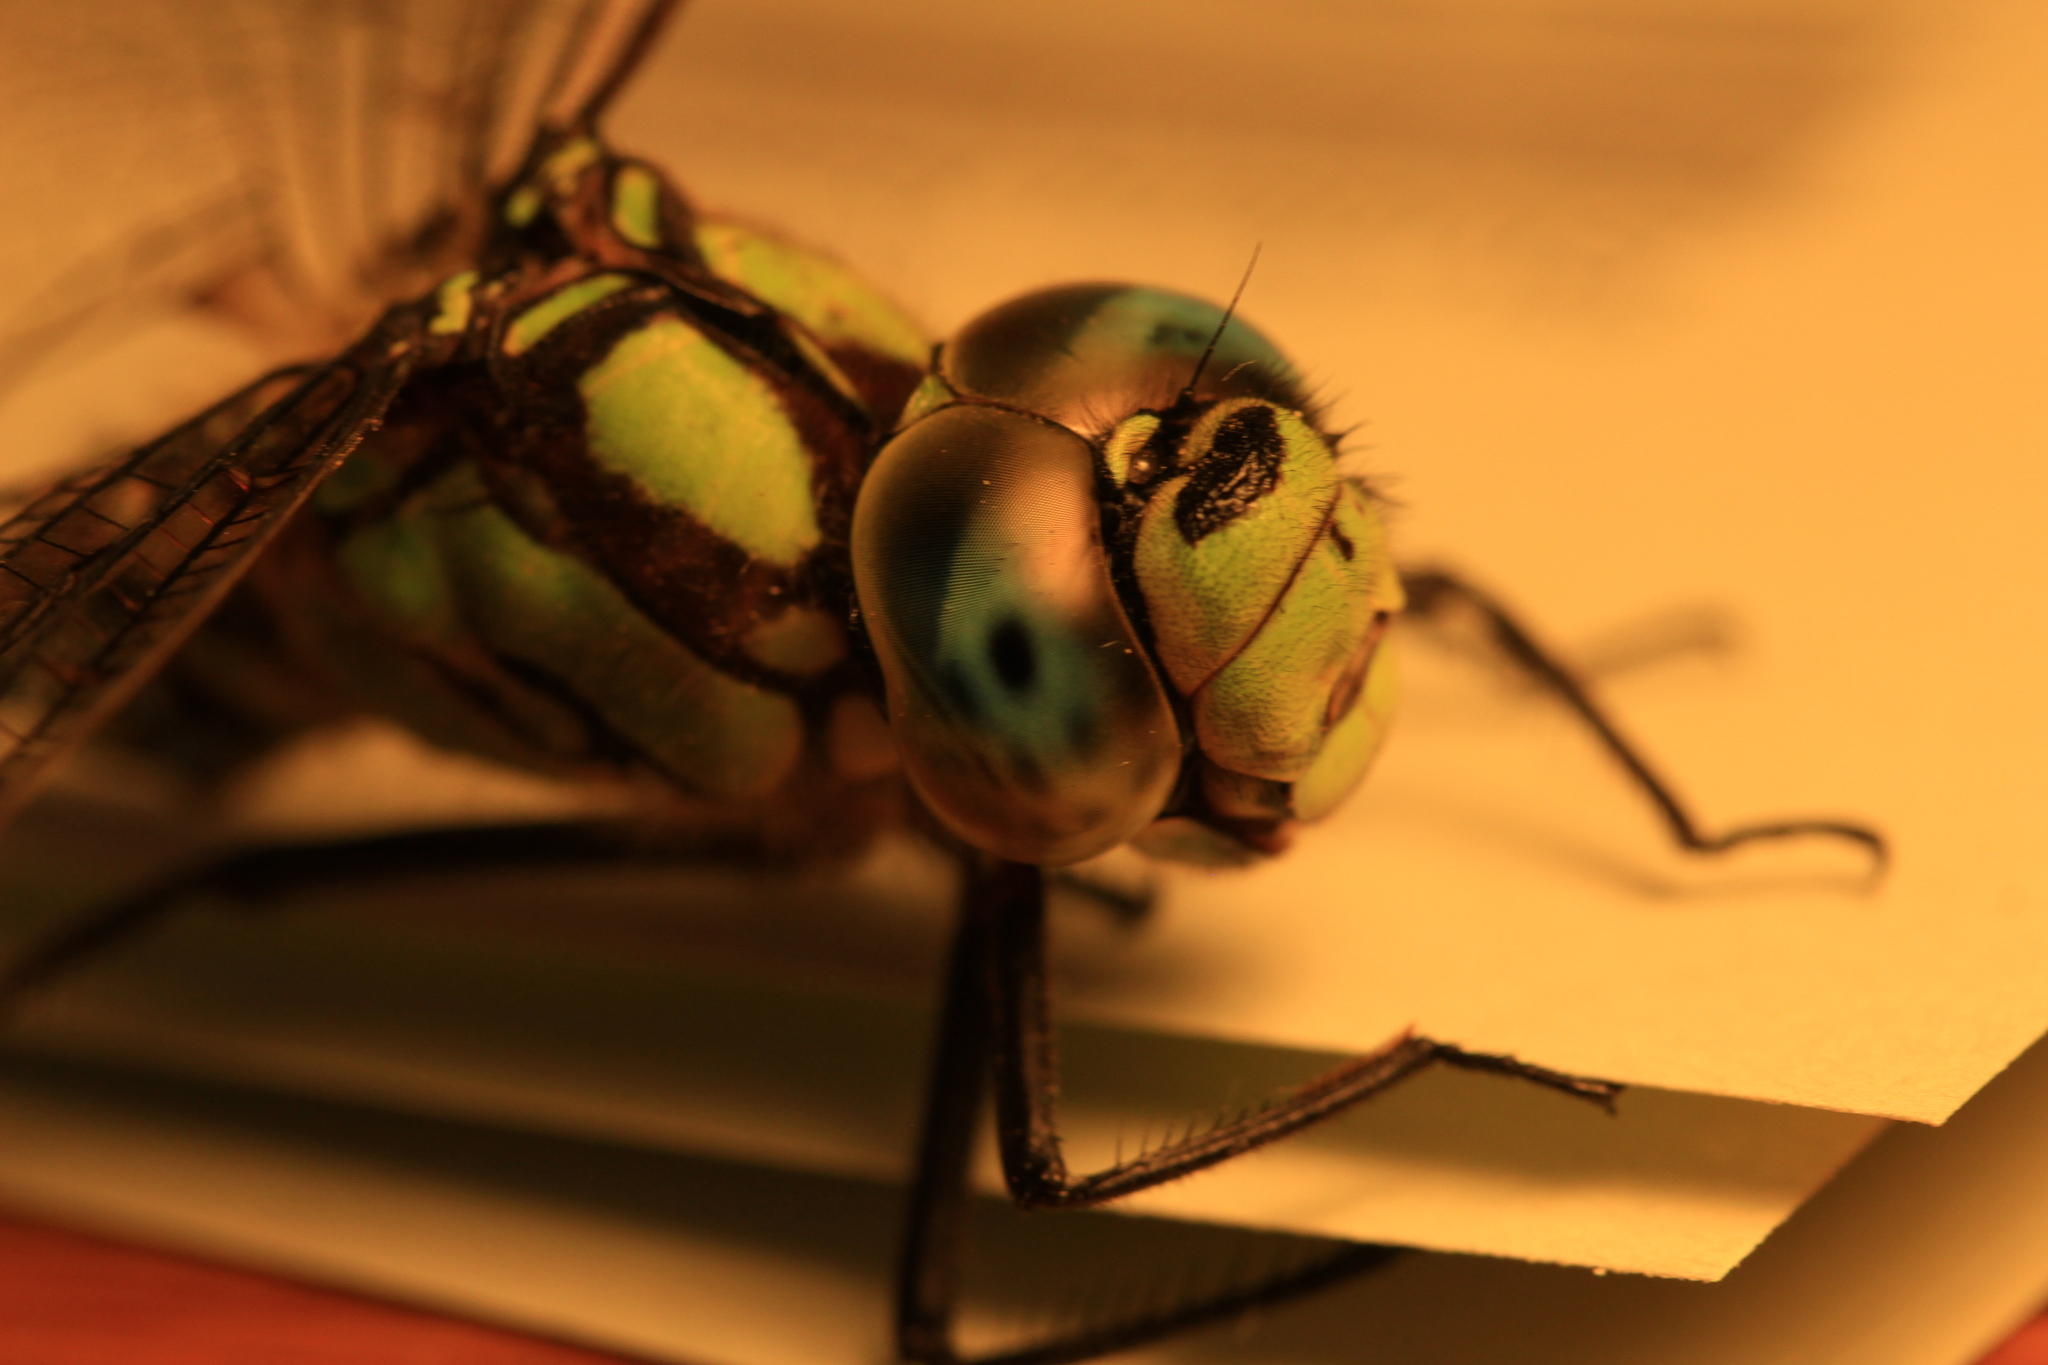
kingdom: Animalia
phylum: Arthropoda
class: Insecta
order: Odonata
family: Aeshnidae
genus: Aeshna
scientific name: Aeshna cyanea
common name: Southern hawker
